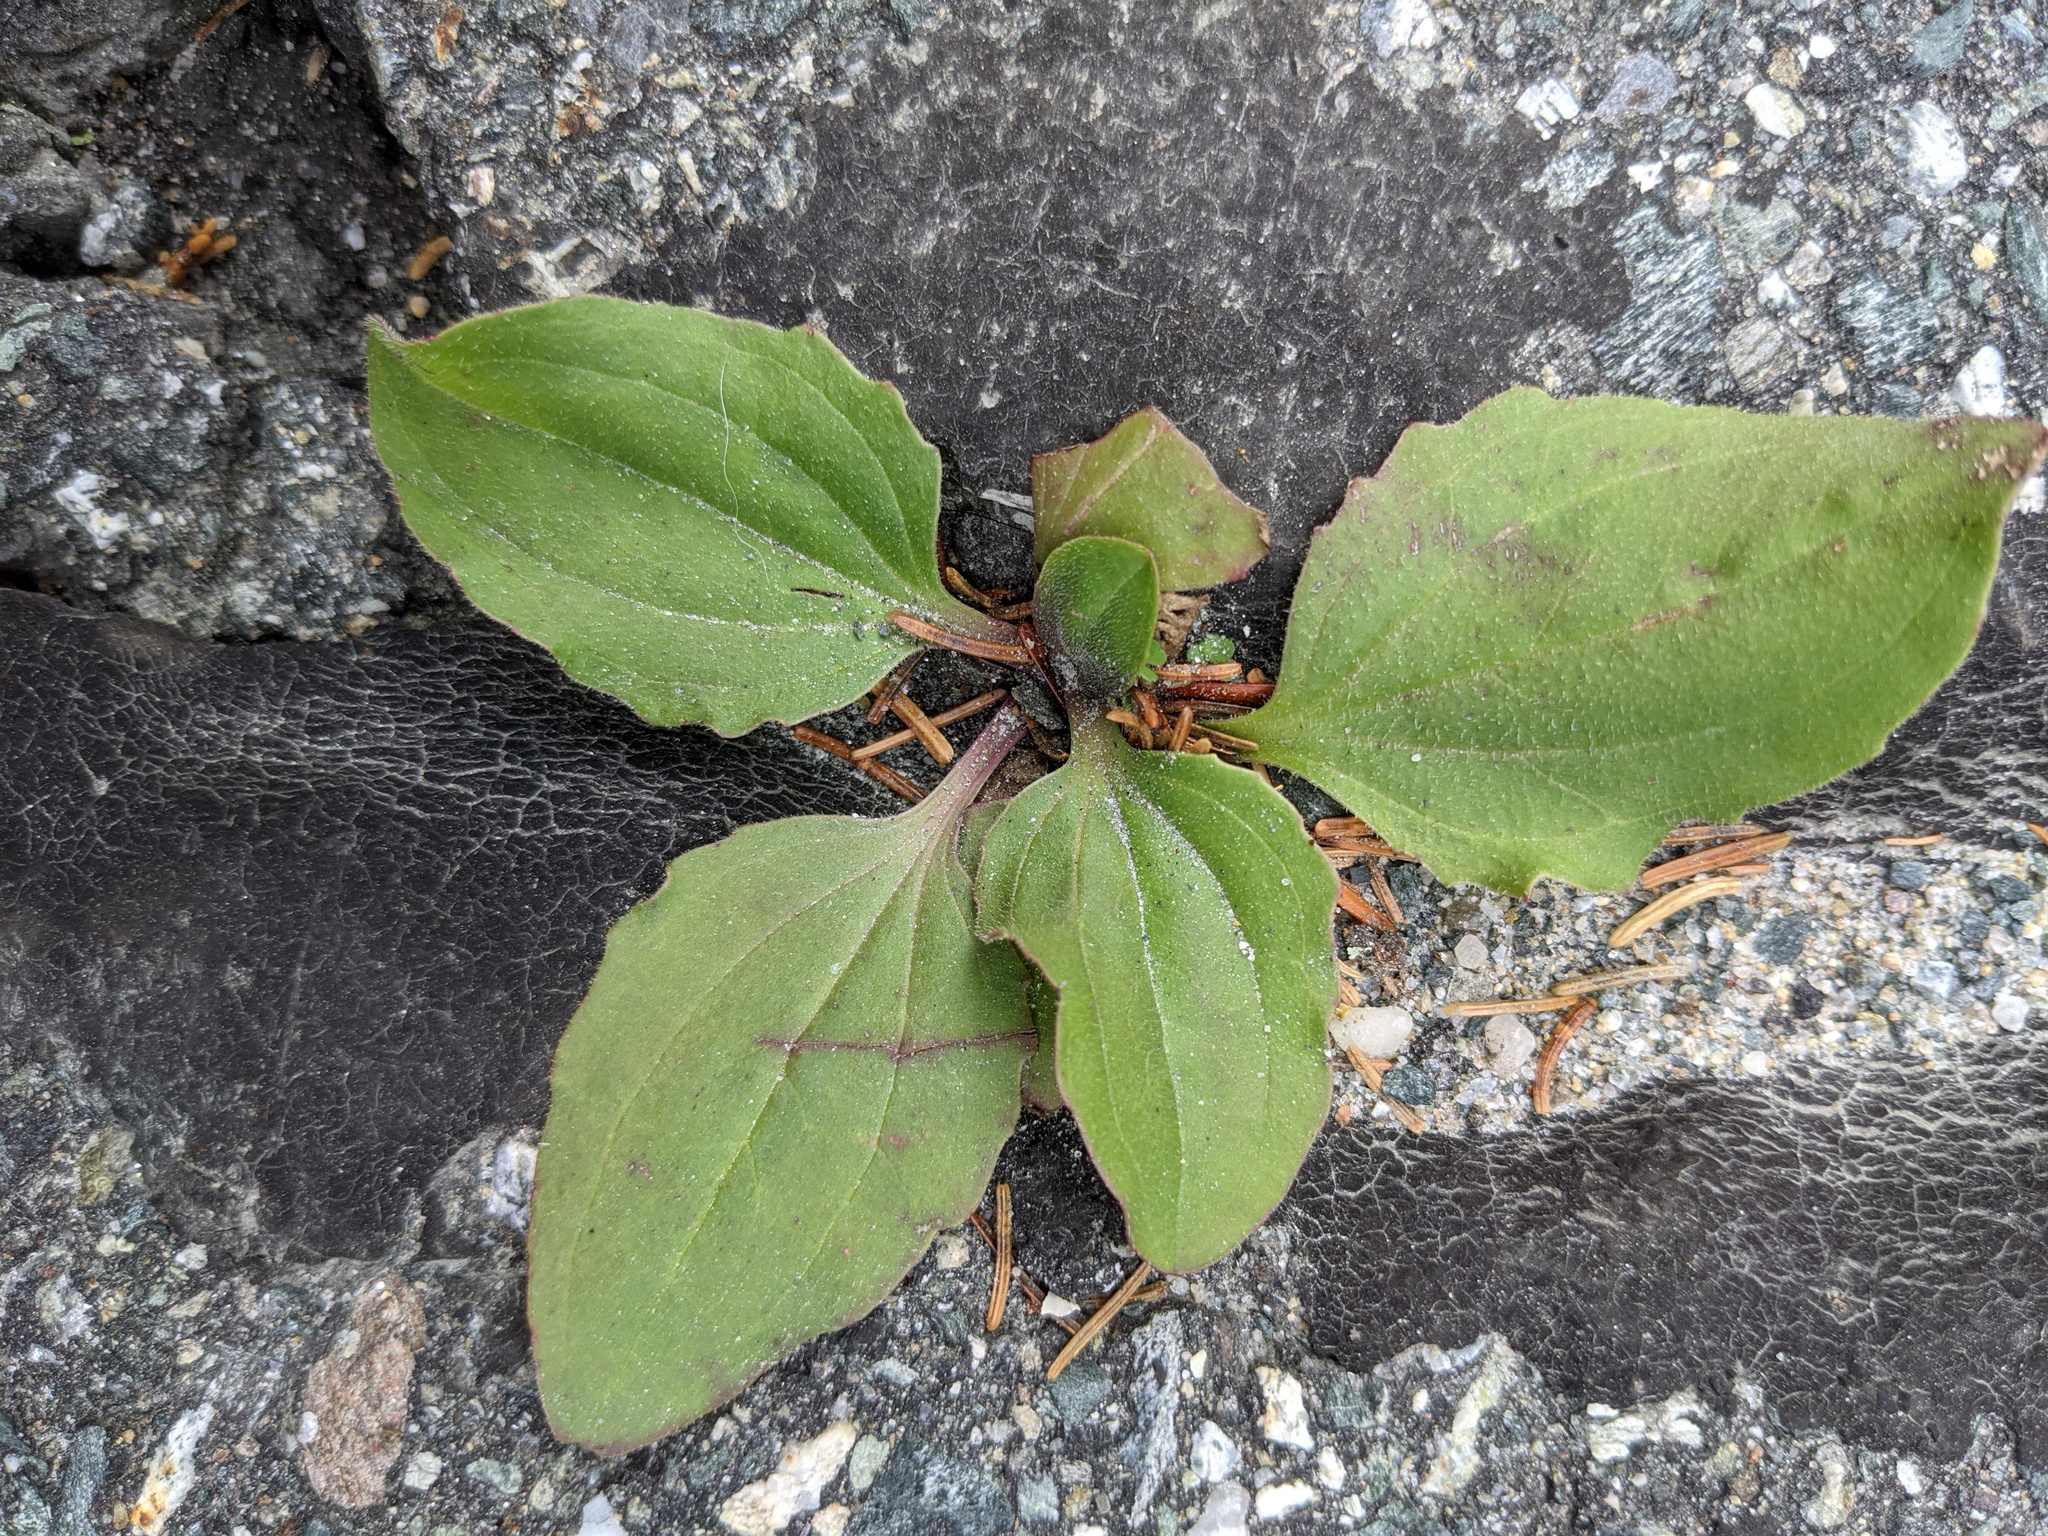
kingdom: Plantae
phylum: Tracheophyta
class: Magnoliopsida
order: Lamiales
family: Plantaginaceae
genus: Plantago
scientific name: Plantago major
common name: Common plantain
